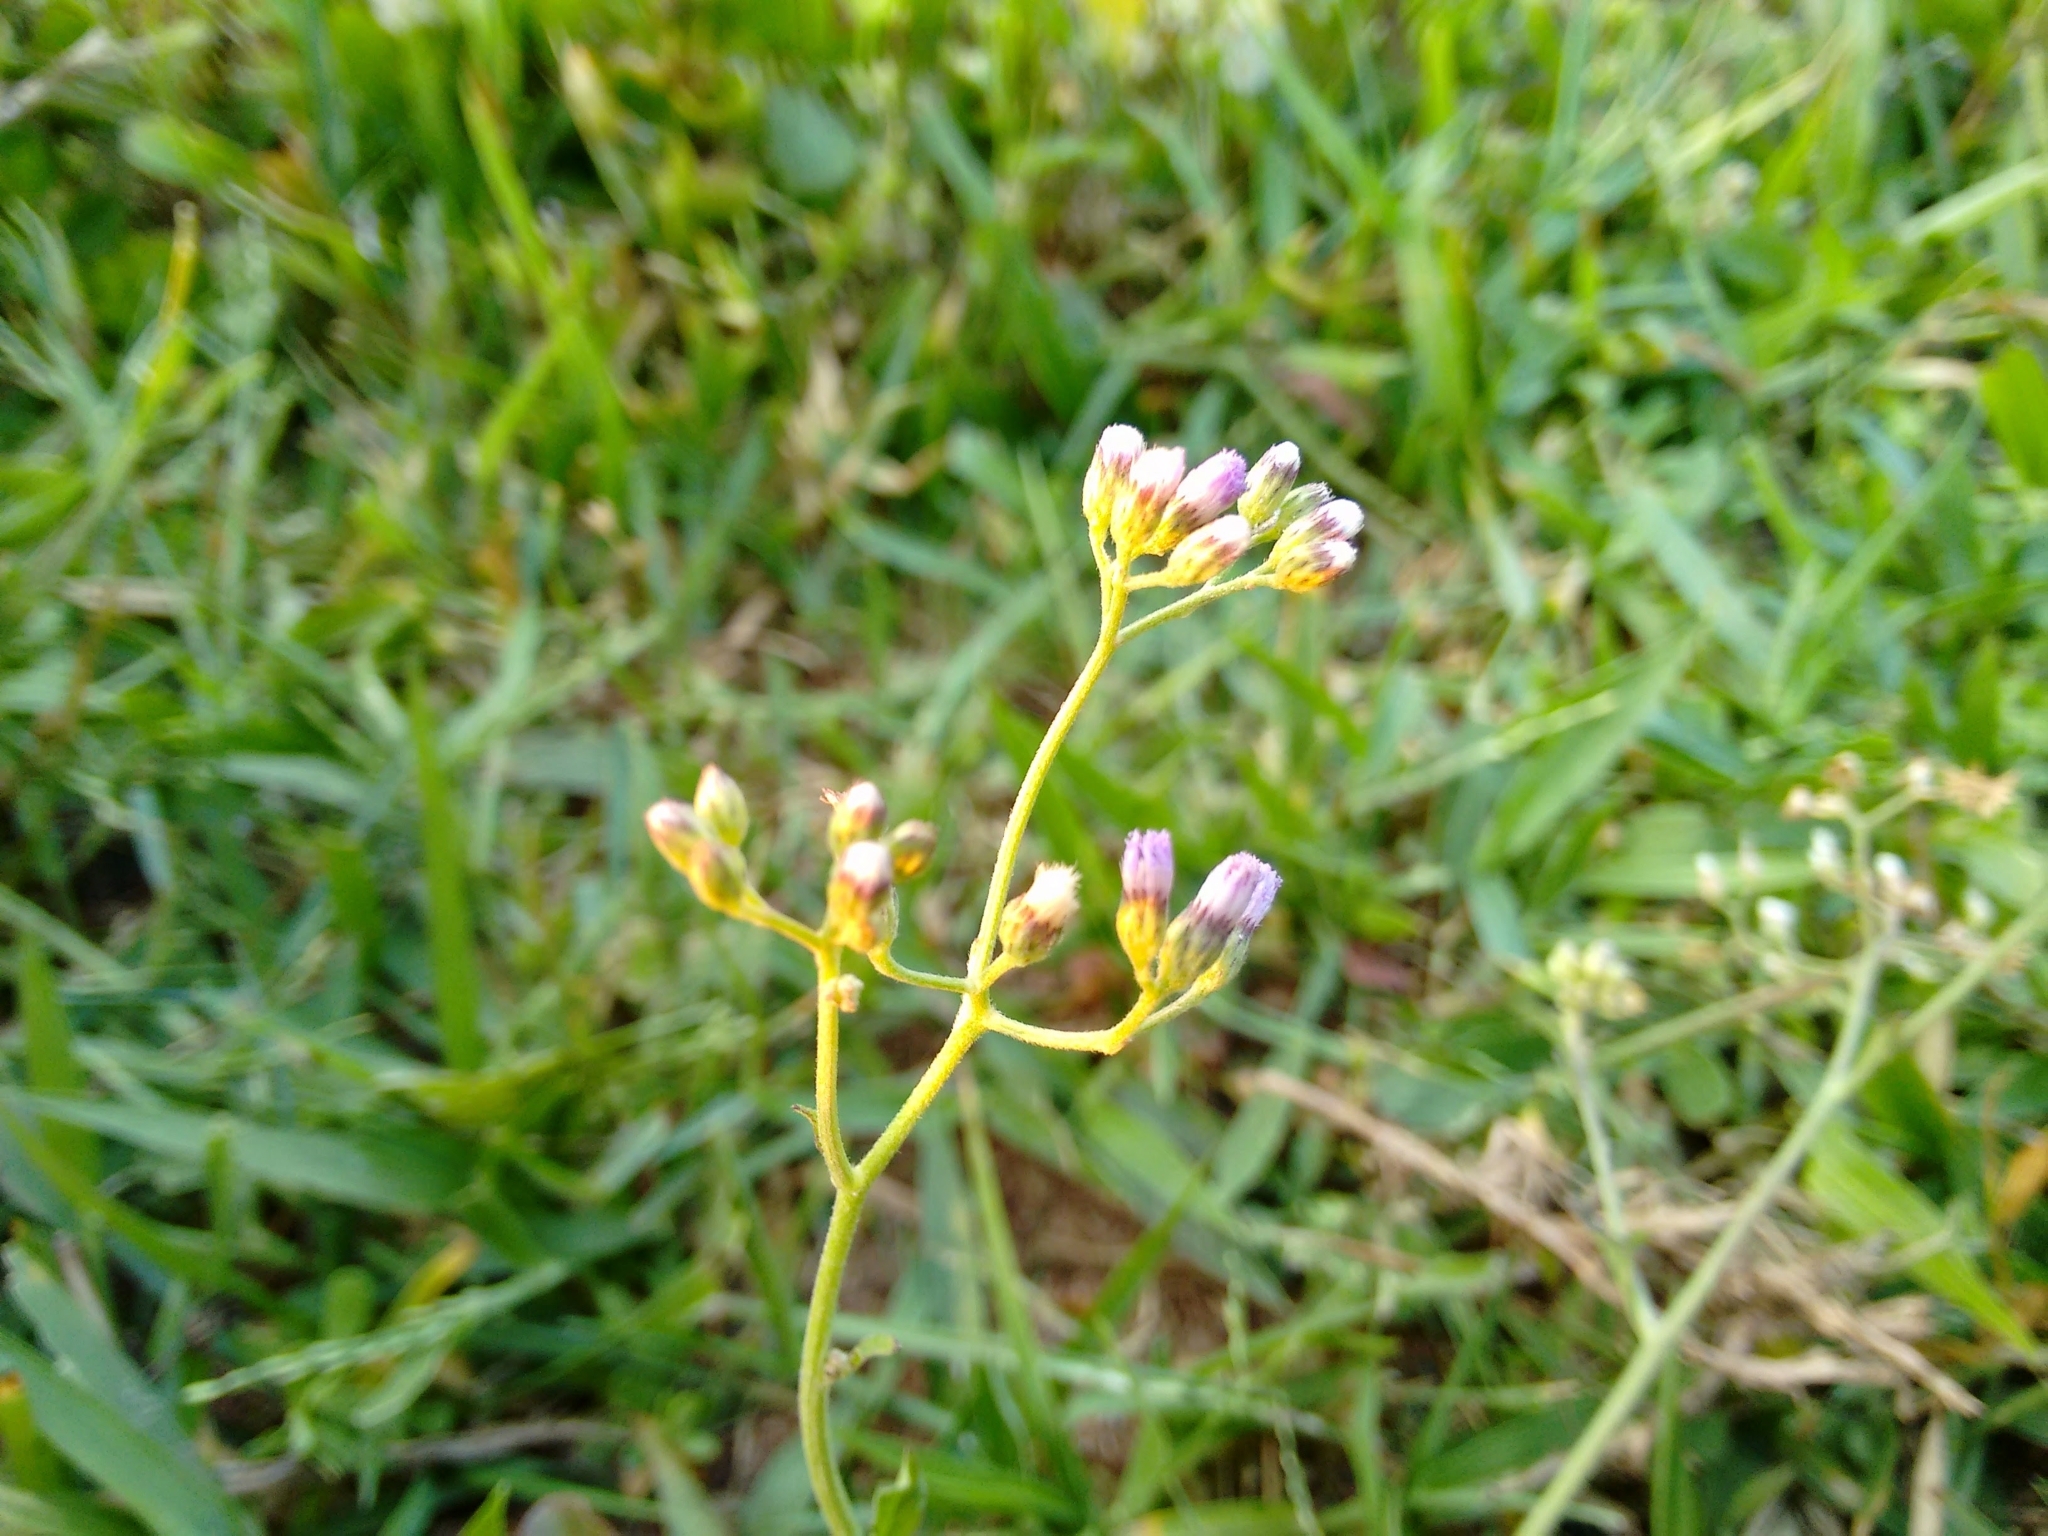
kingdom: Plantae
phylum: Tracheophyta
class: Magnoliopsida
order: Asterales
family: Asteraceae
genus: Cyanthillium
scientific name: Cyanthillium cinereum
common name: Little ironweed
